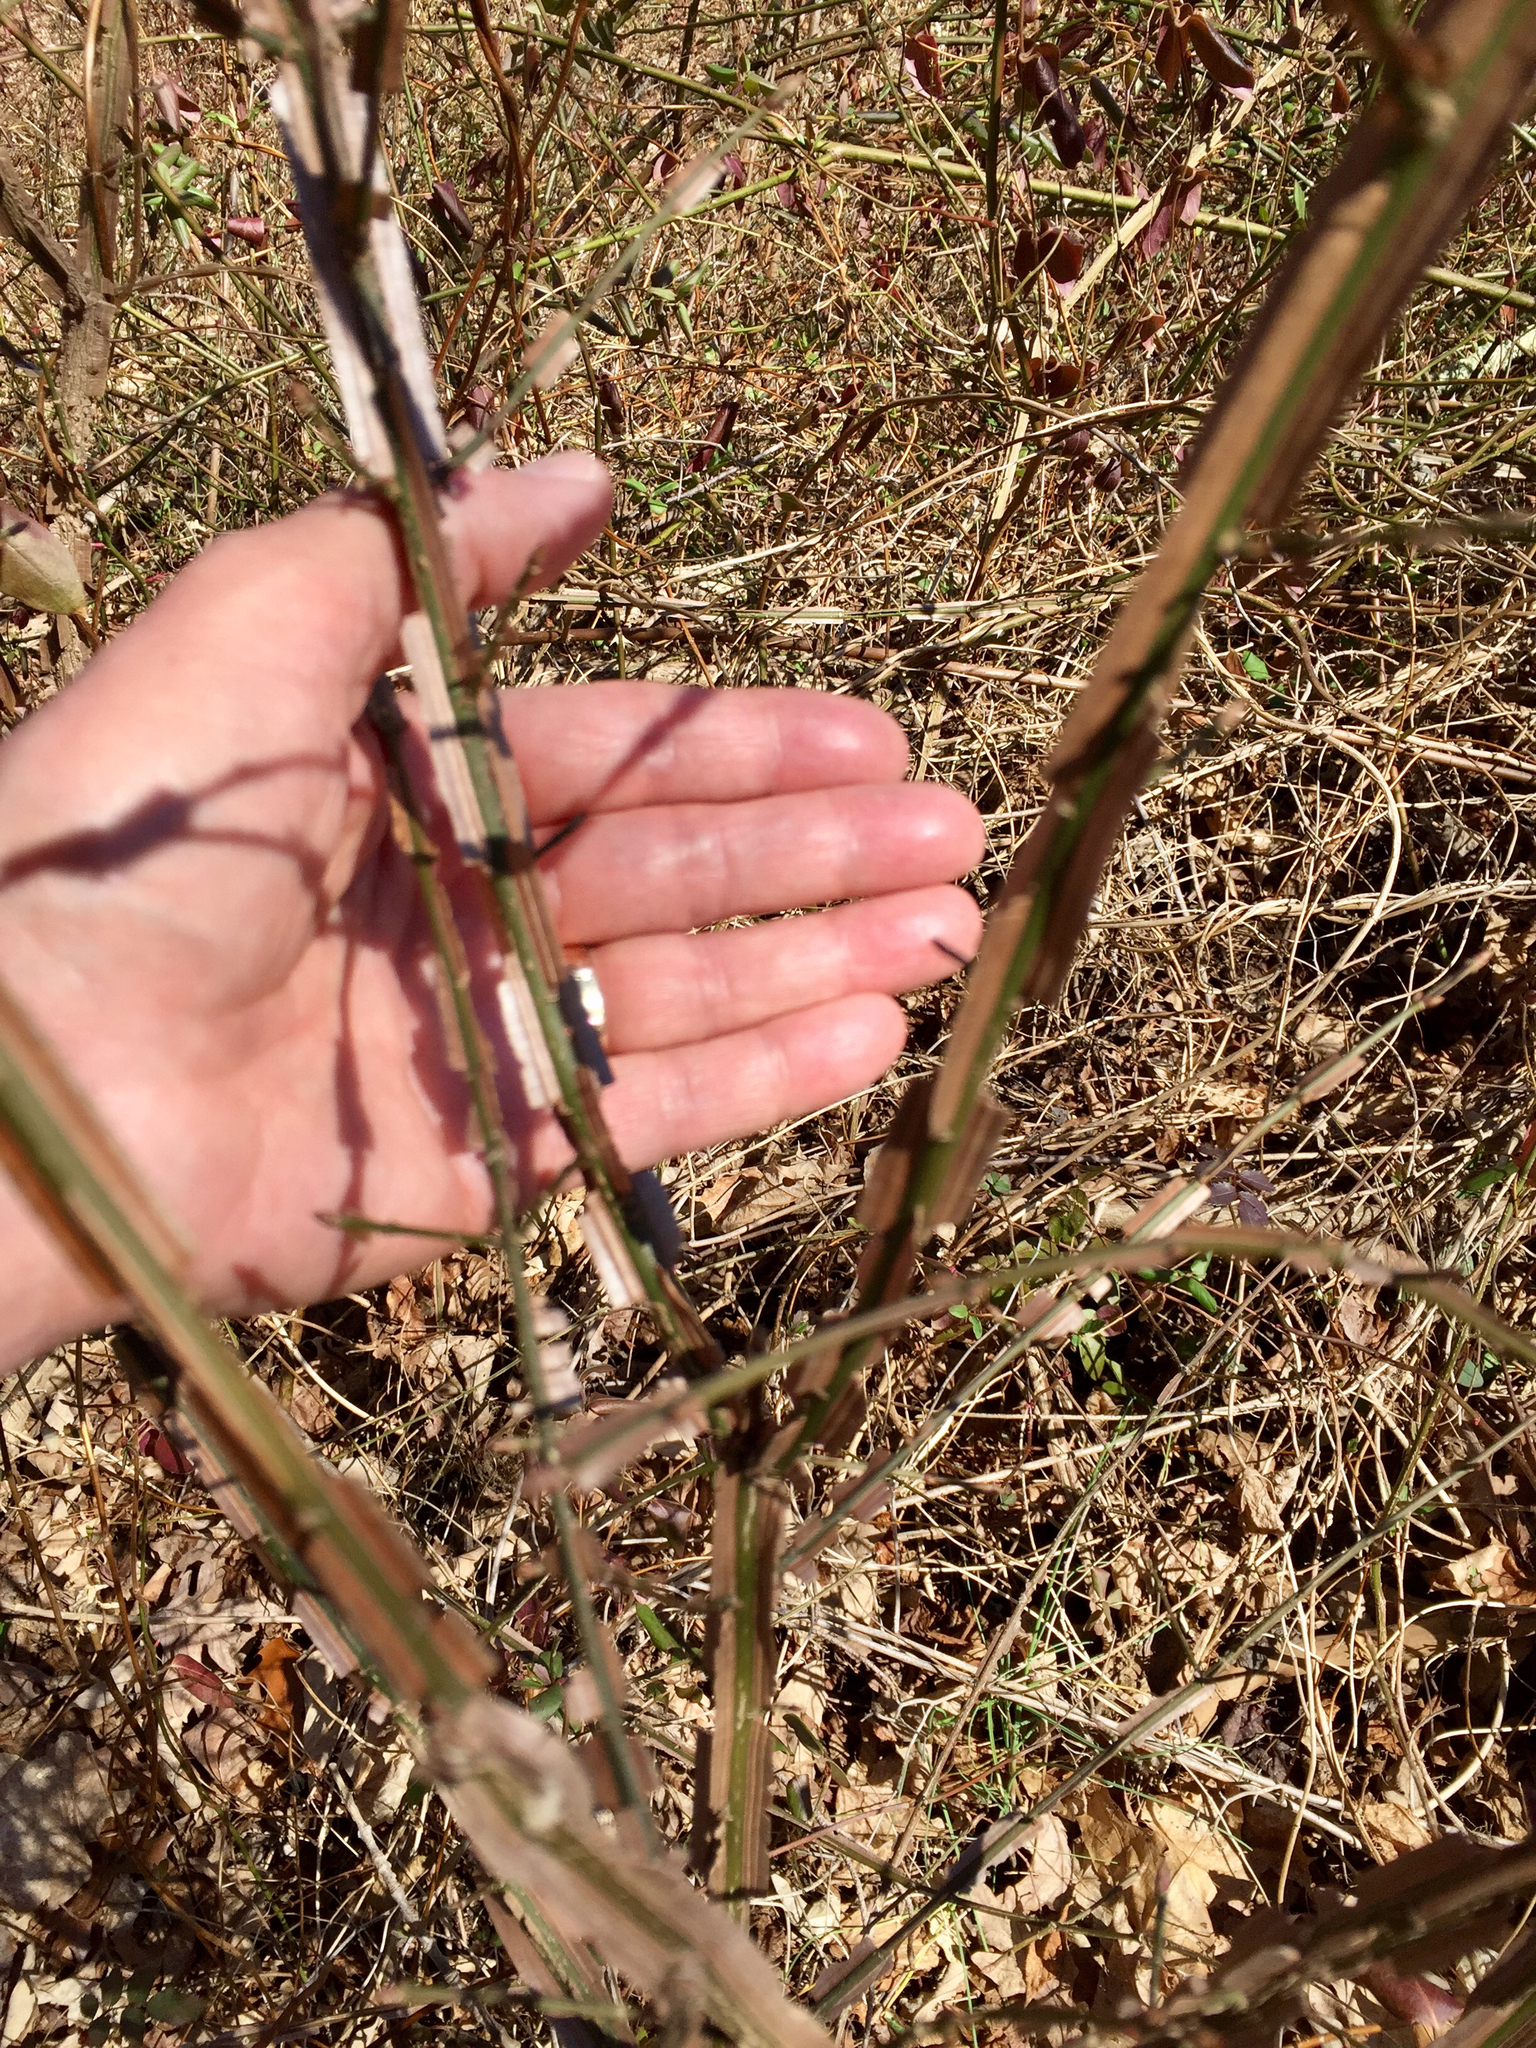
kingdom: Plantae
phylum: Tracheophyta
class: Magnoliopsida
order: Celastrales
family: Celastraceae
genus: Euonymus
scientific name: Euonymus alatus
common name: Winged euonymus
